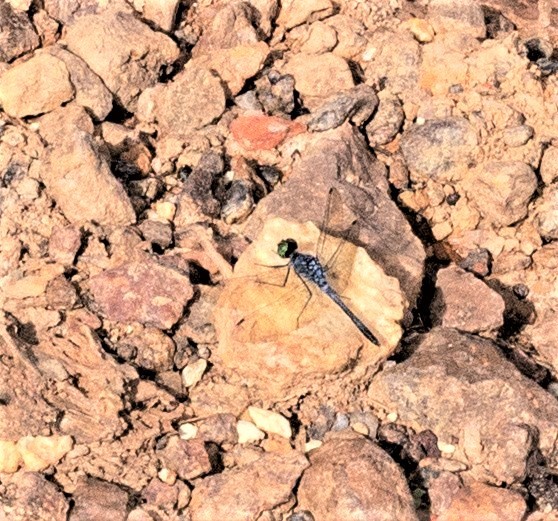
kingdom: Animalia
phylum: Arthropoda
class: Insecta
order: Odonata
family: Libellulidae
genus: Oligoclada
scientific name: Oligoclada pachystigma
